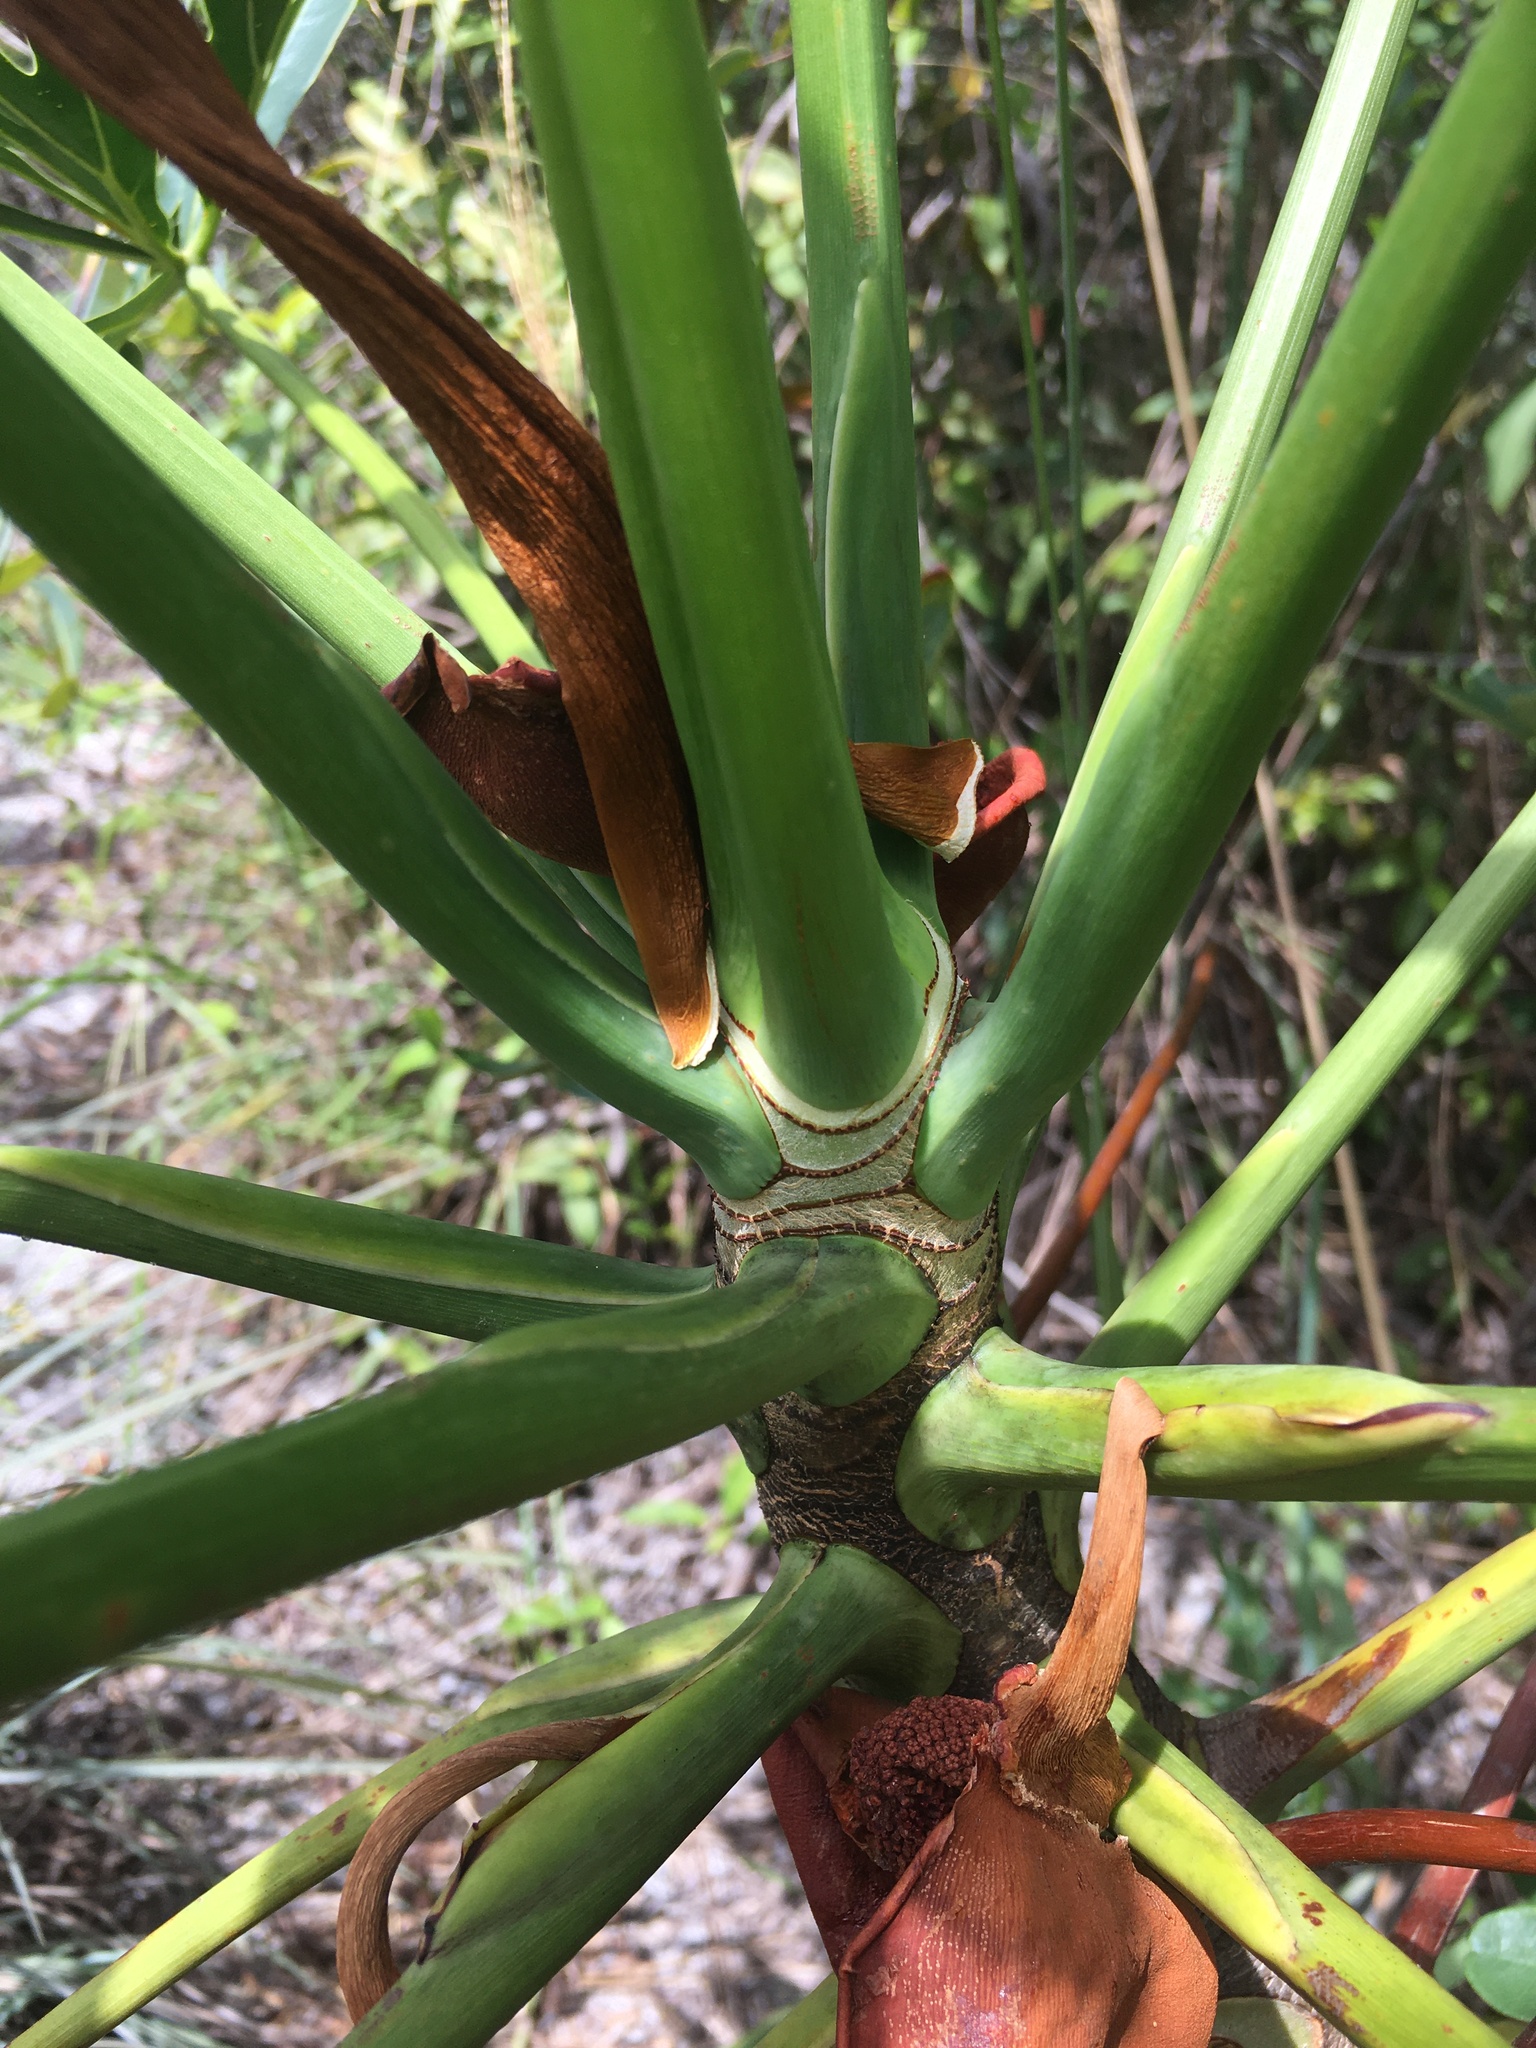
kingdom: Plantae
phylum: Tracheophyta
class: Liliopsida
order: Alismatales
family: Araceae
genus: Thaumatophyllum
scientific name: Thaumatophyllum adamantinum
